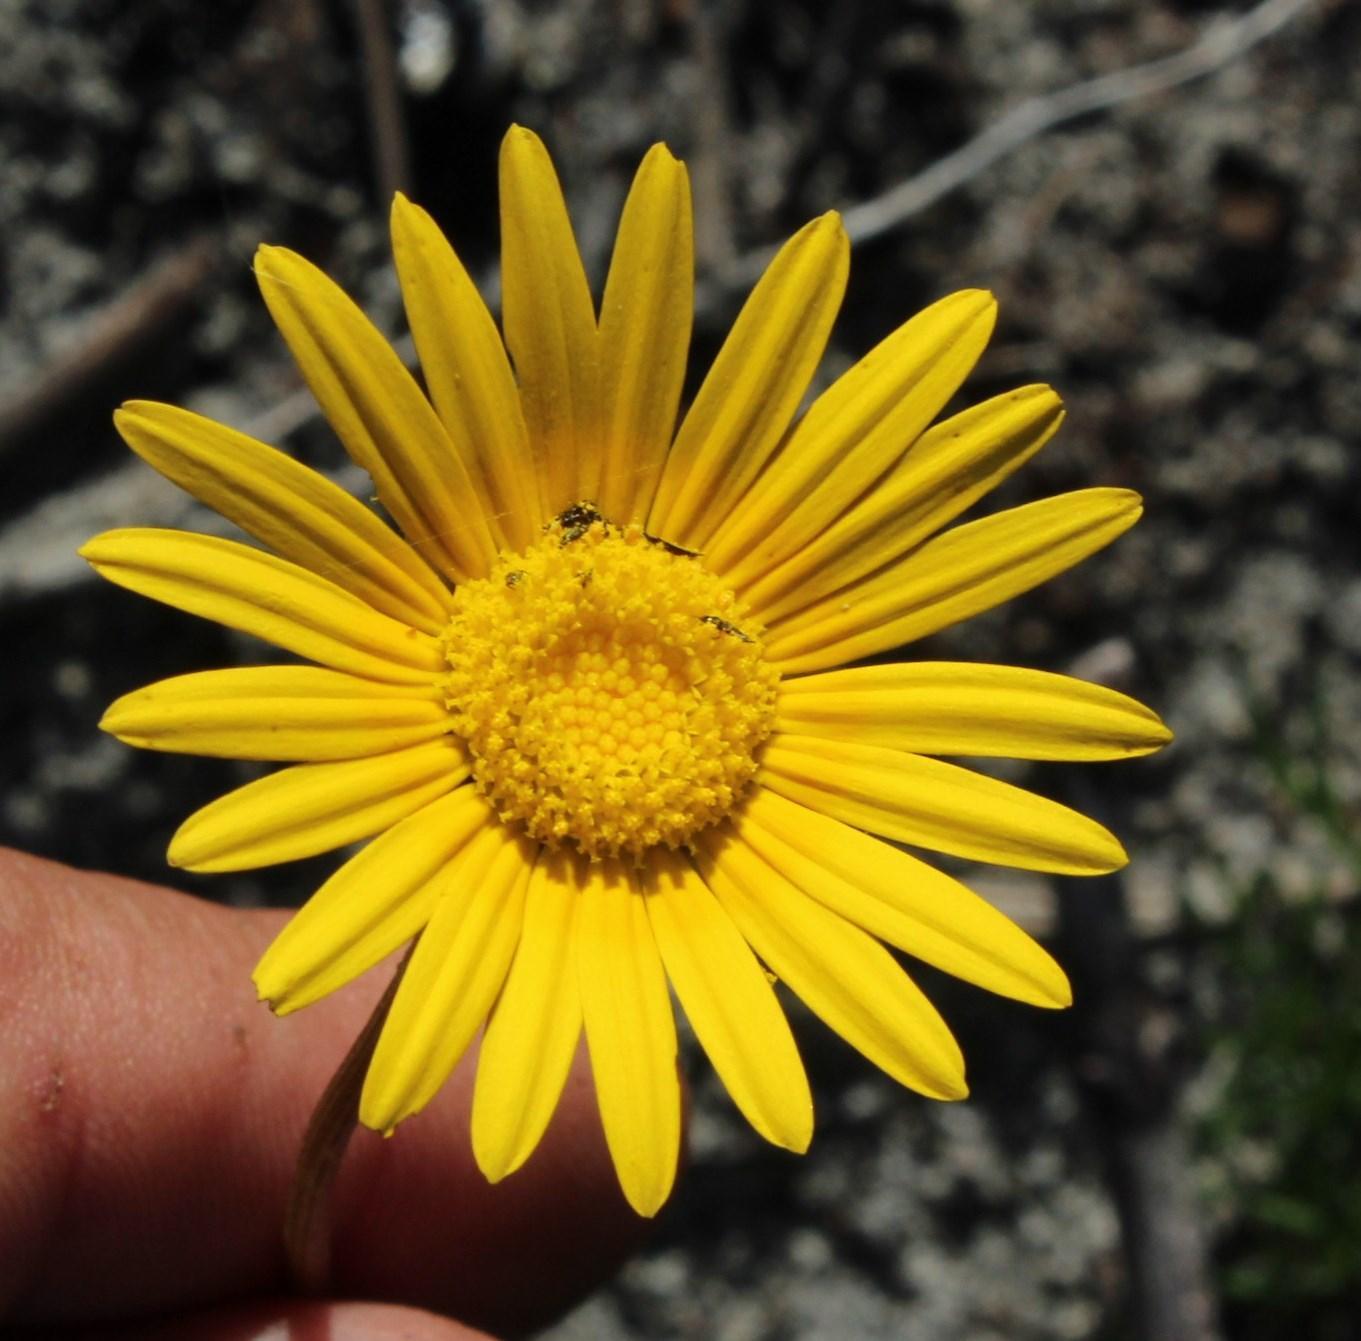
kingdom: Plantae
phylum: Tracheophyta
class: Magnoliopsida
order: Asterales
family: Asteraceae
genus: Ursinia
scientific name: Ursinia tenuifolia
